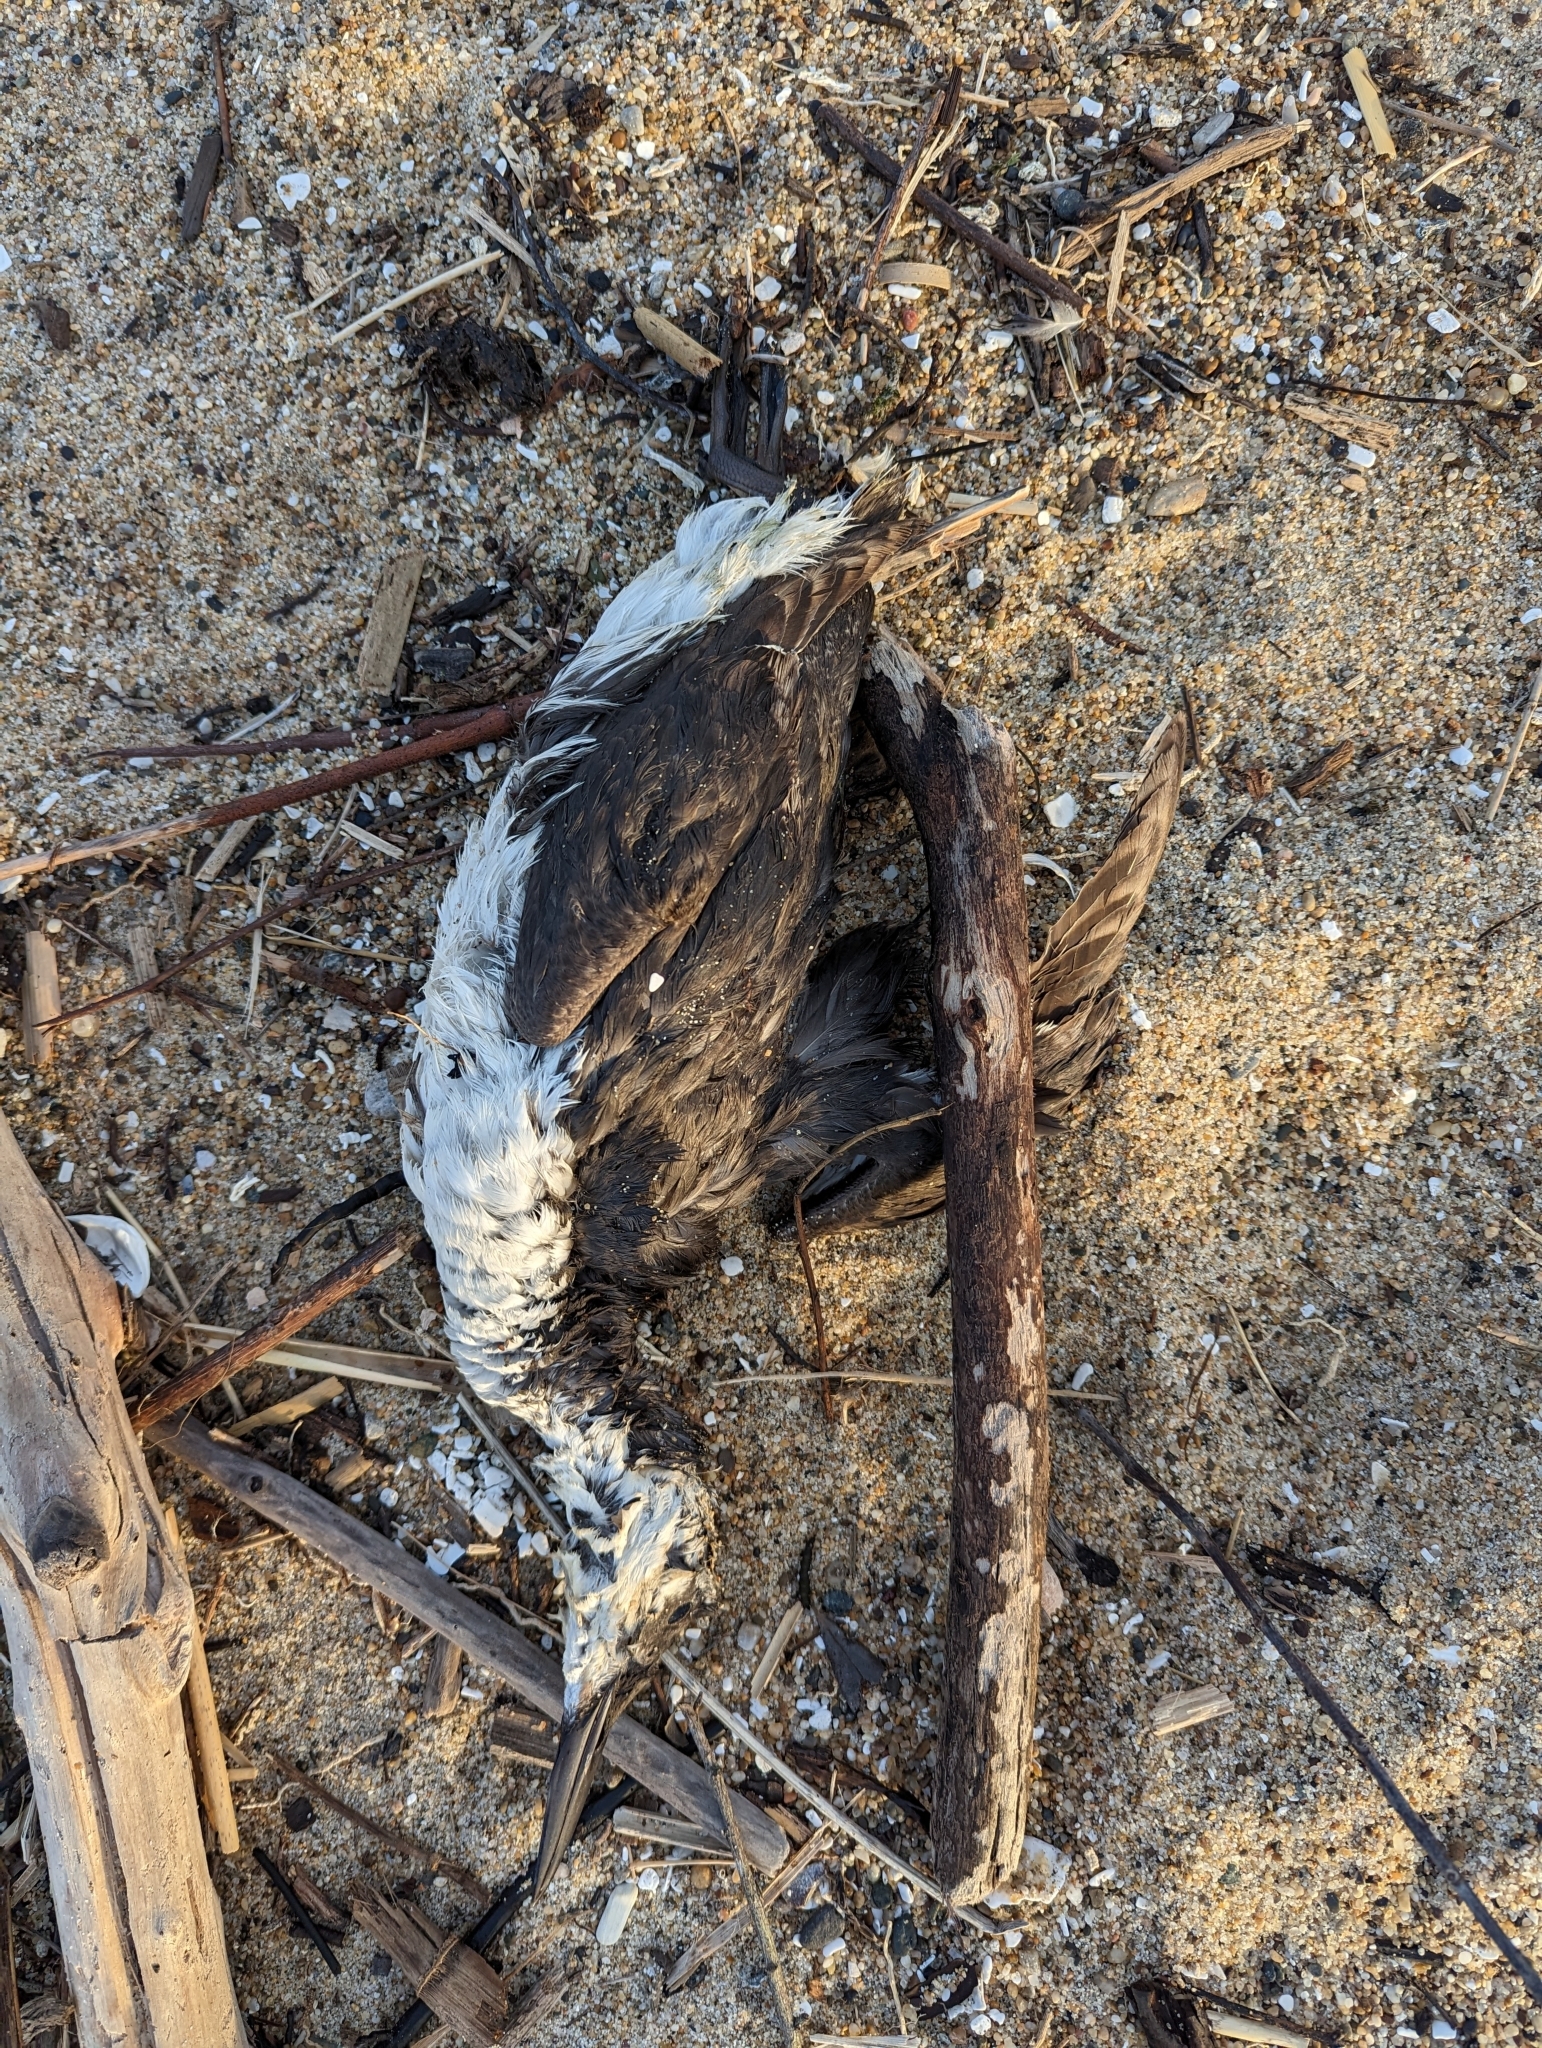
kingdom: Animalia
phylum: Chordata
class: Aves
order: Charadriiformes
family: Alcidae
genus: Uria
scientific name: Uria aalge
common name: Common murre
